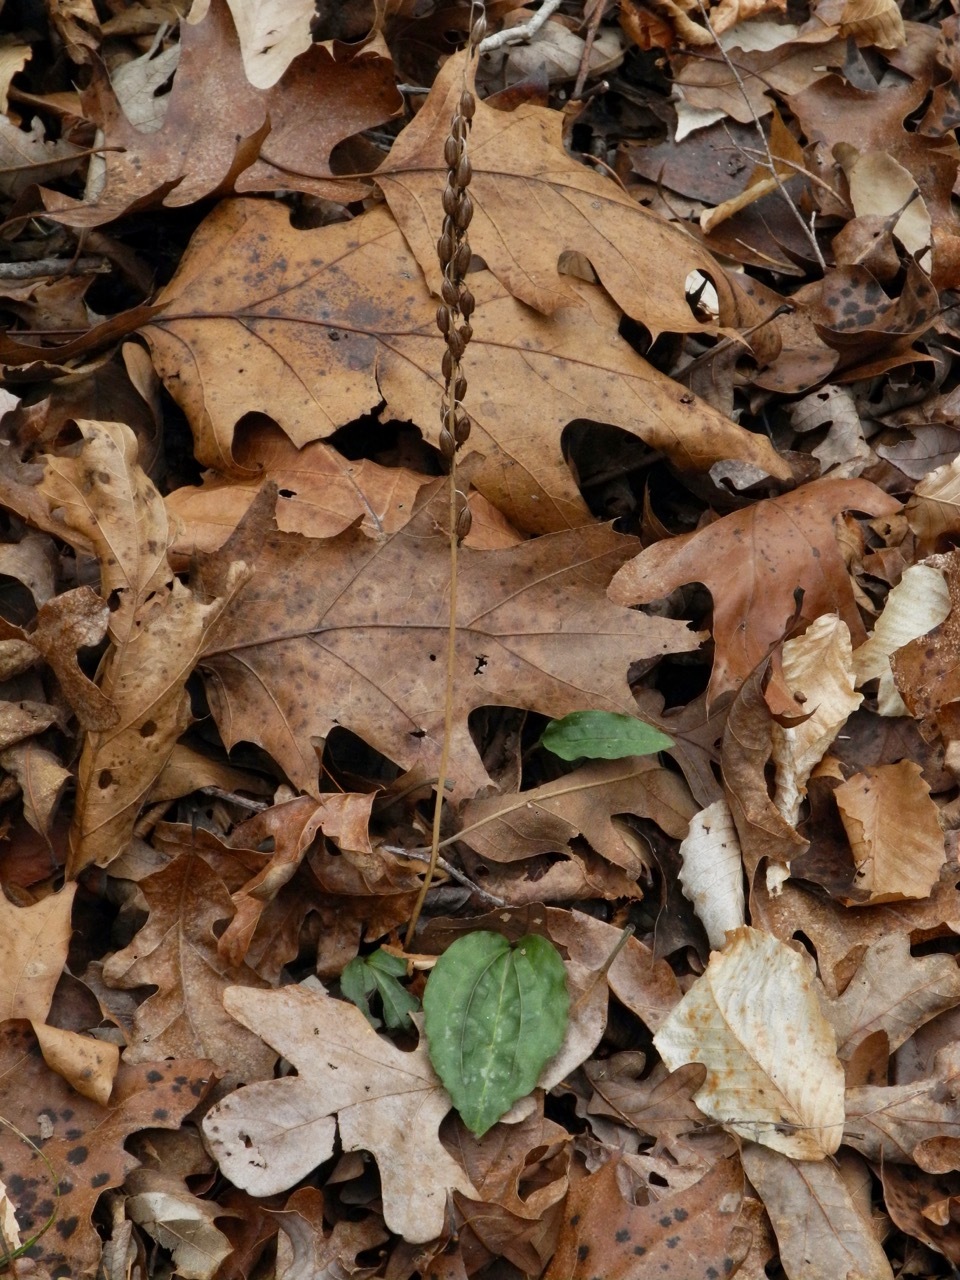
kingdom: Plantae
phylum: Tracheophyta
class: Liliopsida
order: Asparagales
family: Orchidaceae
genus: Tipularia
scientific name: Tipularia discolor
